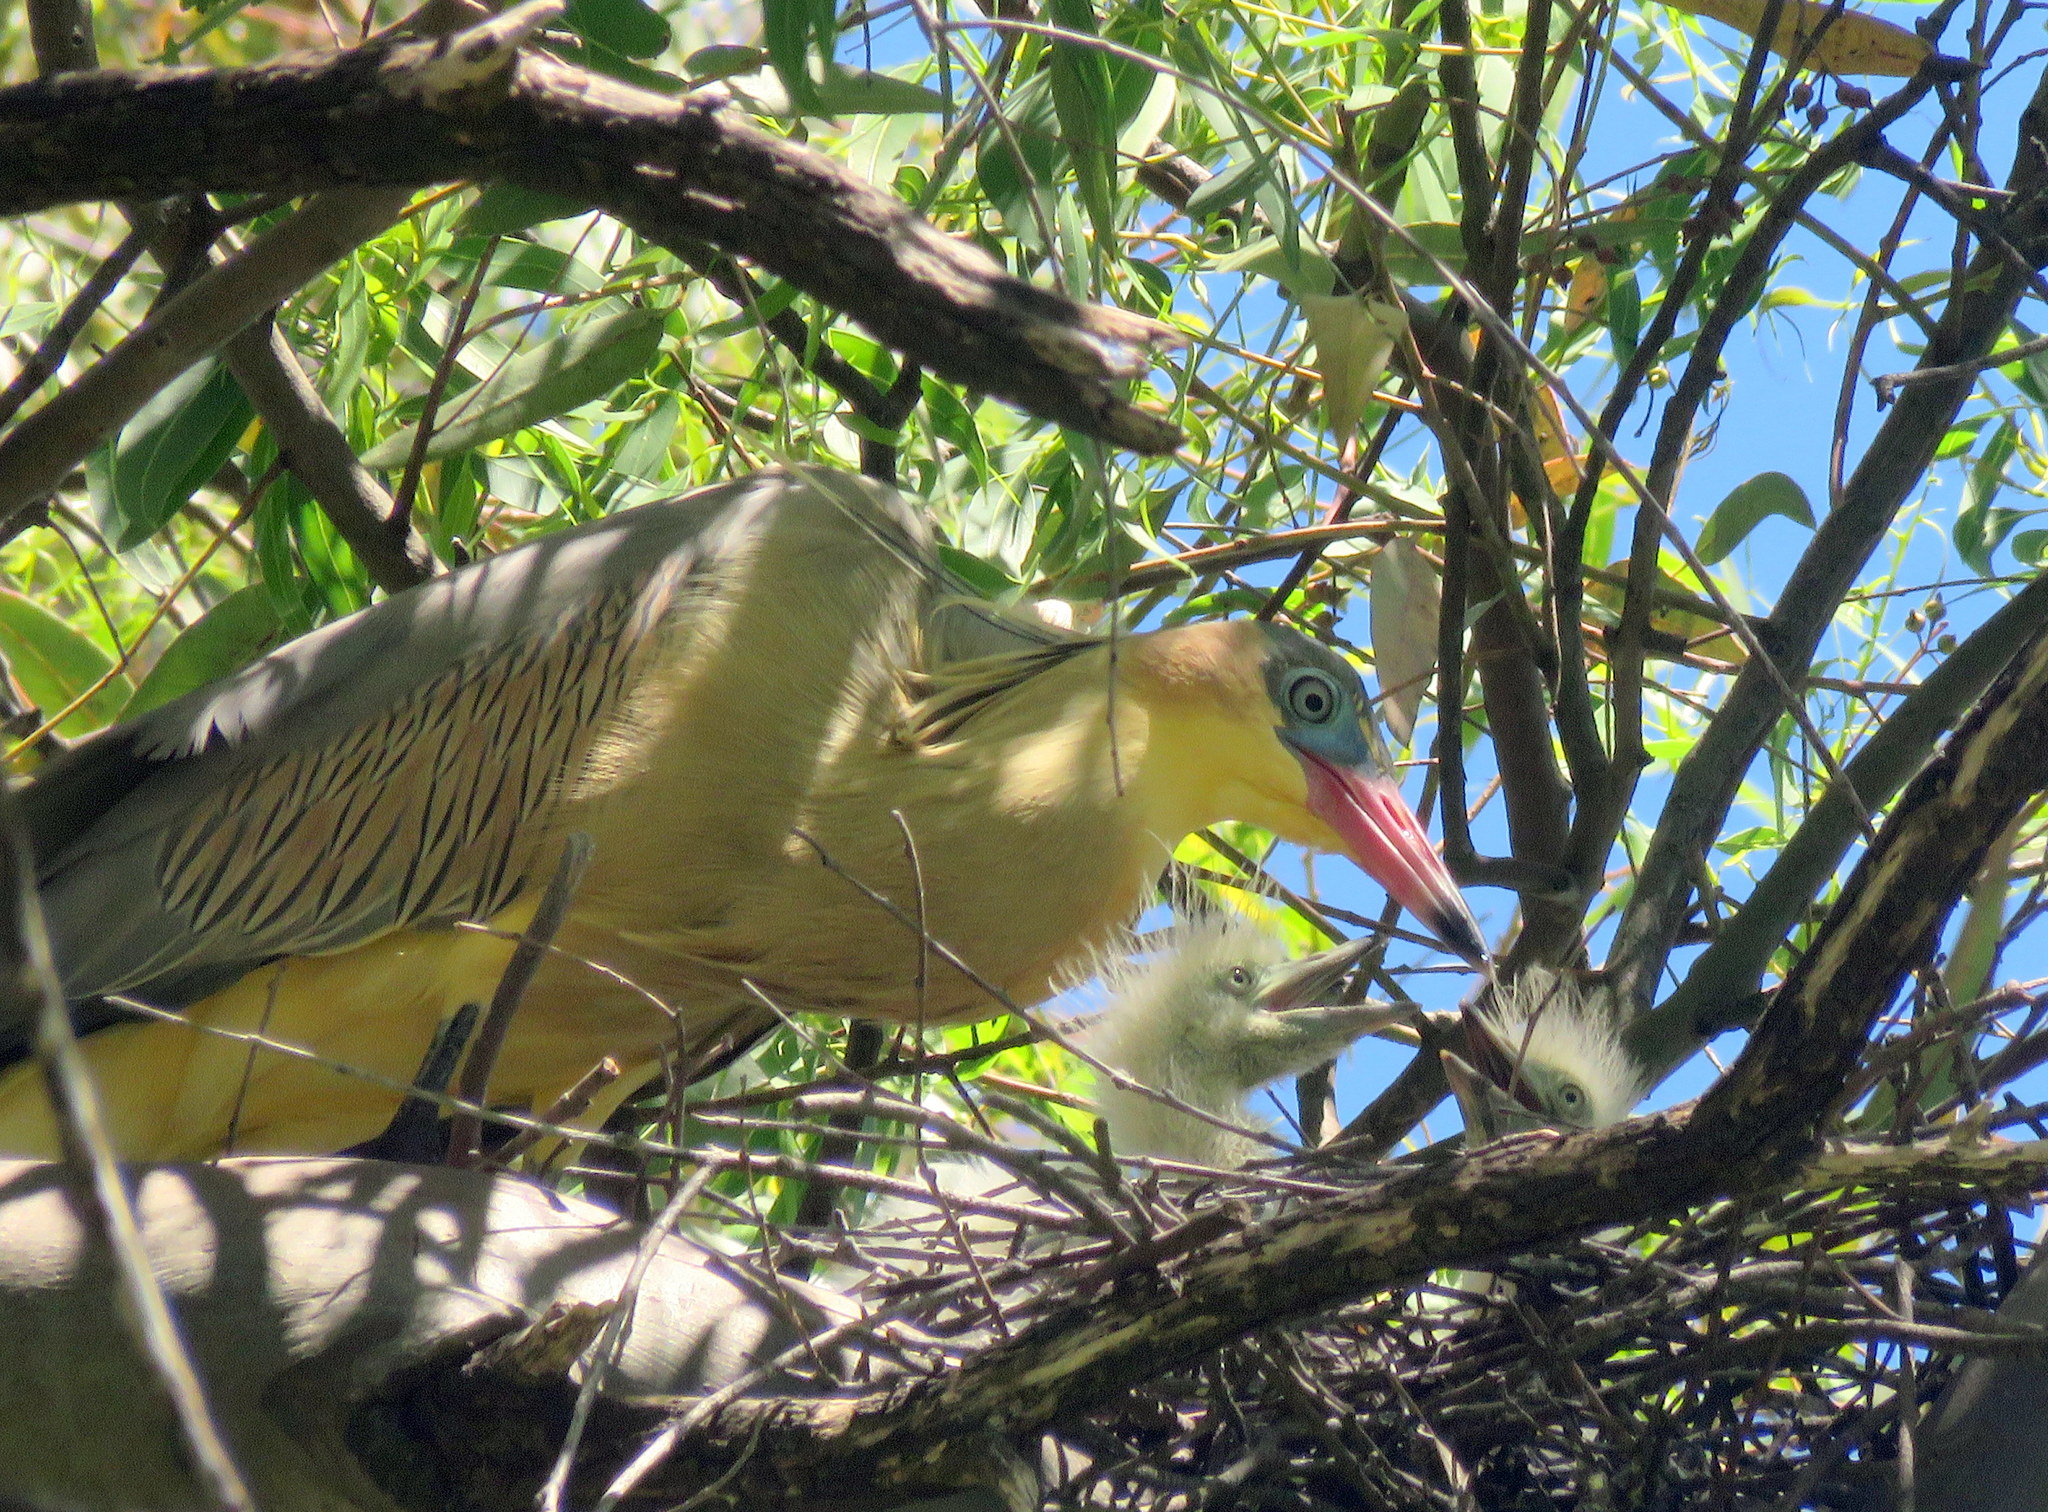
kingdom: Animalia
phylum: Chordata
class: Aves
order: Pelecaniformes
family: Ardeidae
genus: Syrigma
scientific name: Syrigma sibilatrix
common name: Whistling heron
